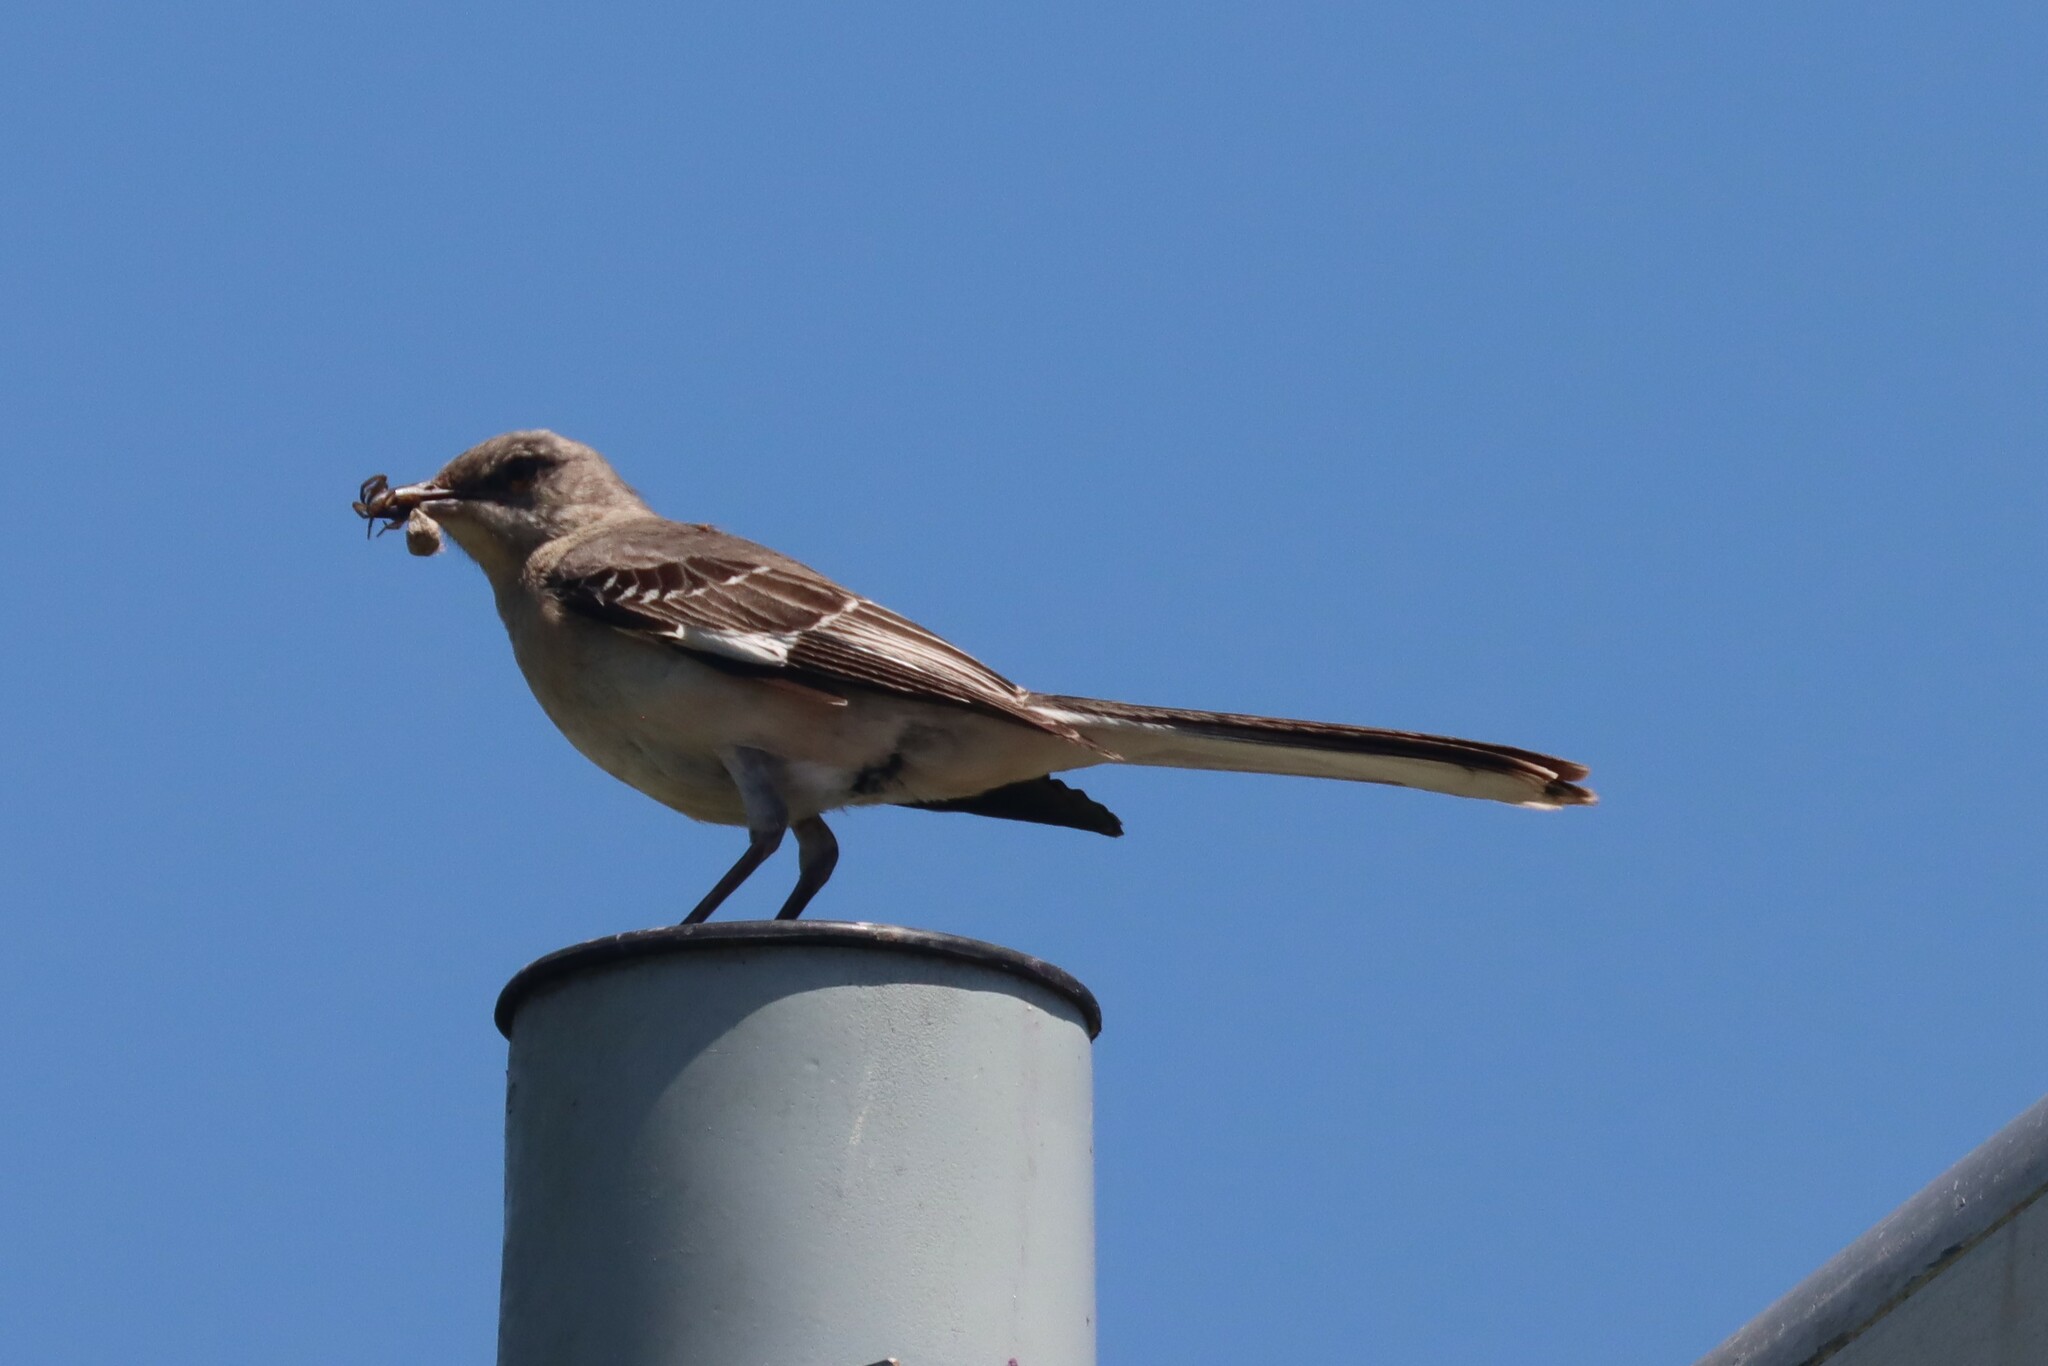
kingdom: Animalia
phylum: Chordata
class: Aves
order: Passeriformes
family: Mimidae
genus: Mimus
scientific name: Mimus polyglottos
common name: Northern mockingbird
